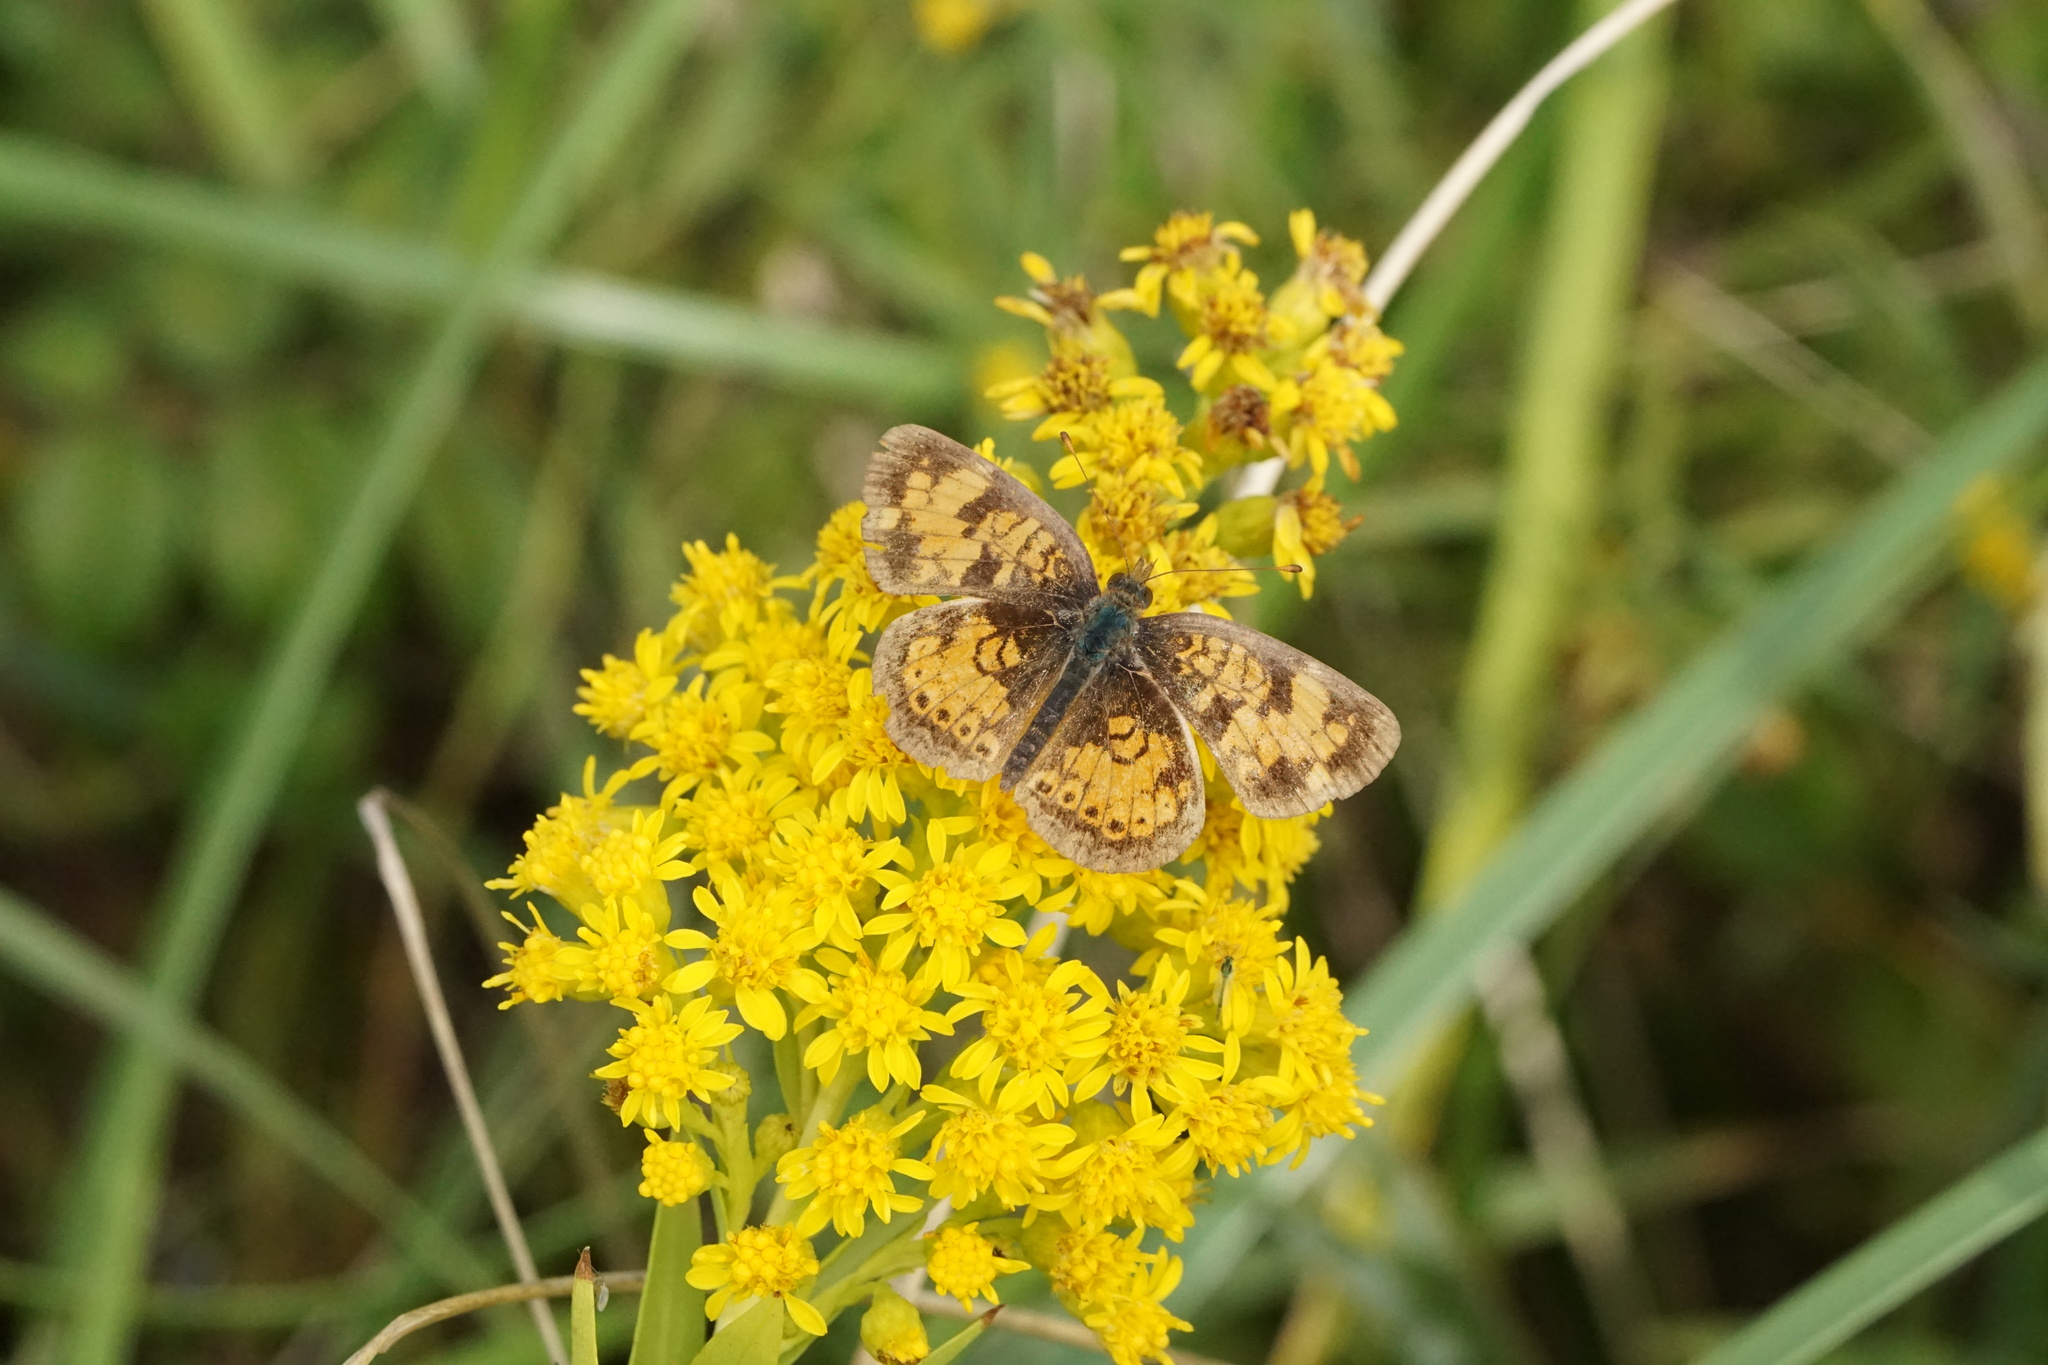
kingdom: Animalia
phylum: Arthropoda
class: Insecta
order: Lepidoptera
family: Nymphalidae
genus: Phyciodes
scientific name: Phyciodes tharos
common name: Pearl crescent
